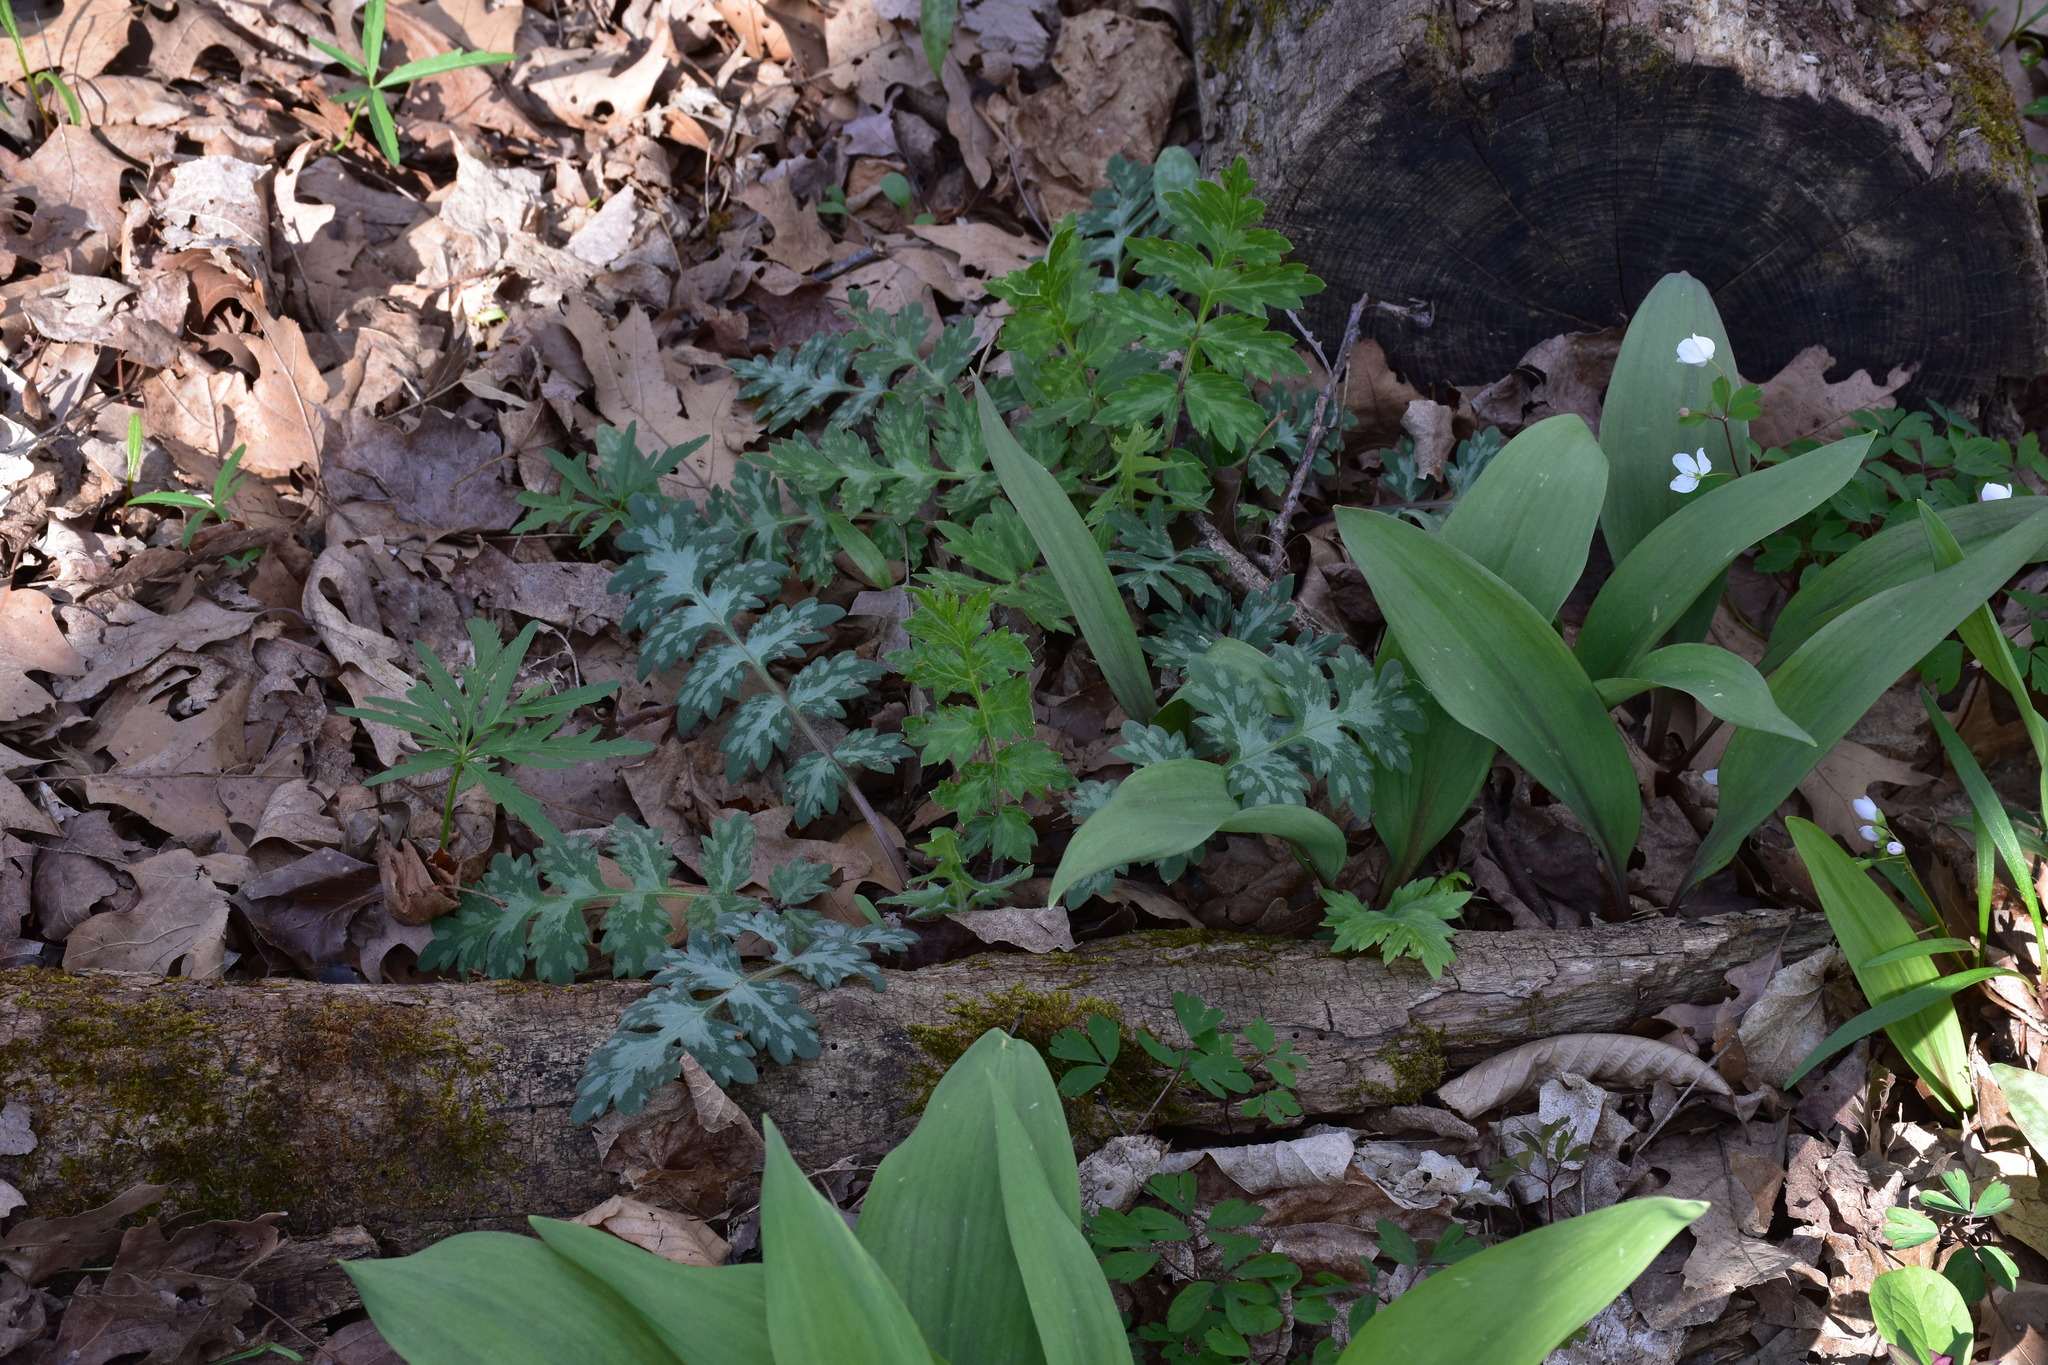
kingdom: Plantae
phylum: Tracheophyta
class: Magnoliopsida
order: Boraginales
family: Hydrophyllaceae
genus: Hydrophyllum
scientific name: Hydrophyllum macrophyllum
